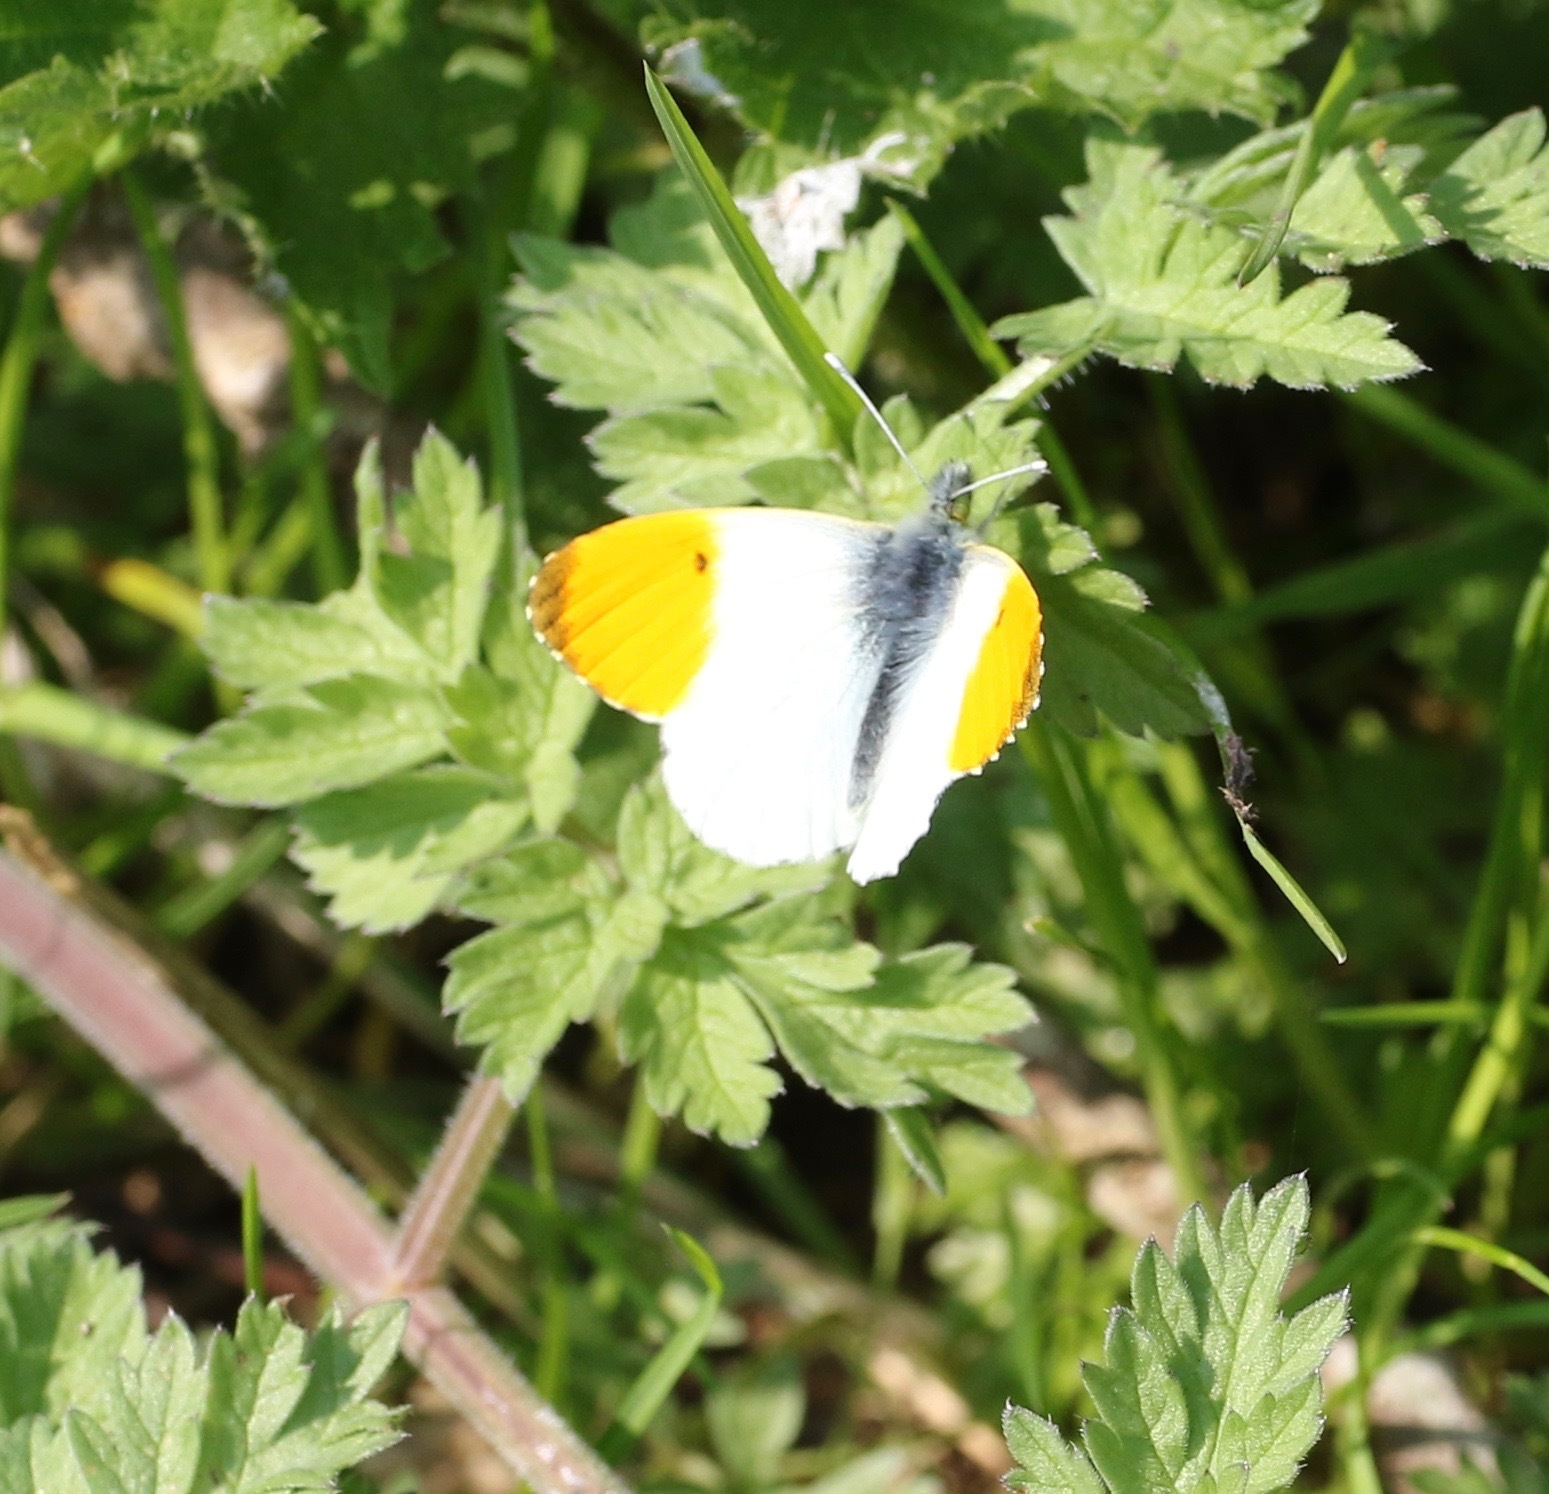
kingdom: Animalia
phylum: Arthropoda
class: Insecta
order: Lepidoptera
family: Pieridae
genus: Anthocharis
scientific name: Anthocharis cardamines
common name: Orange-tip
